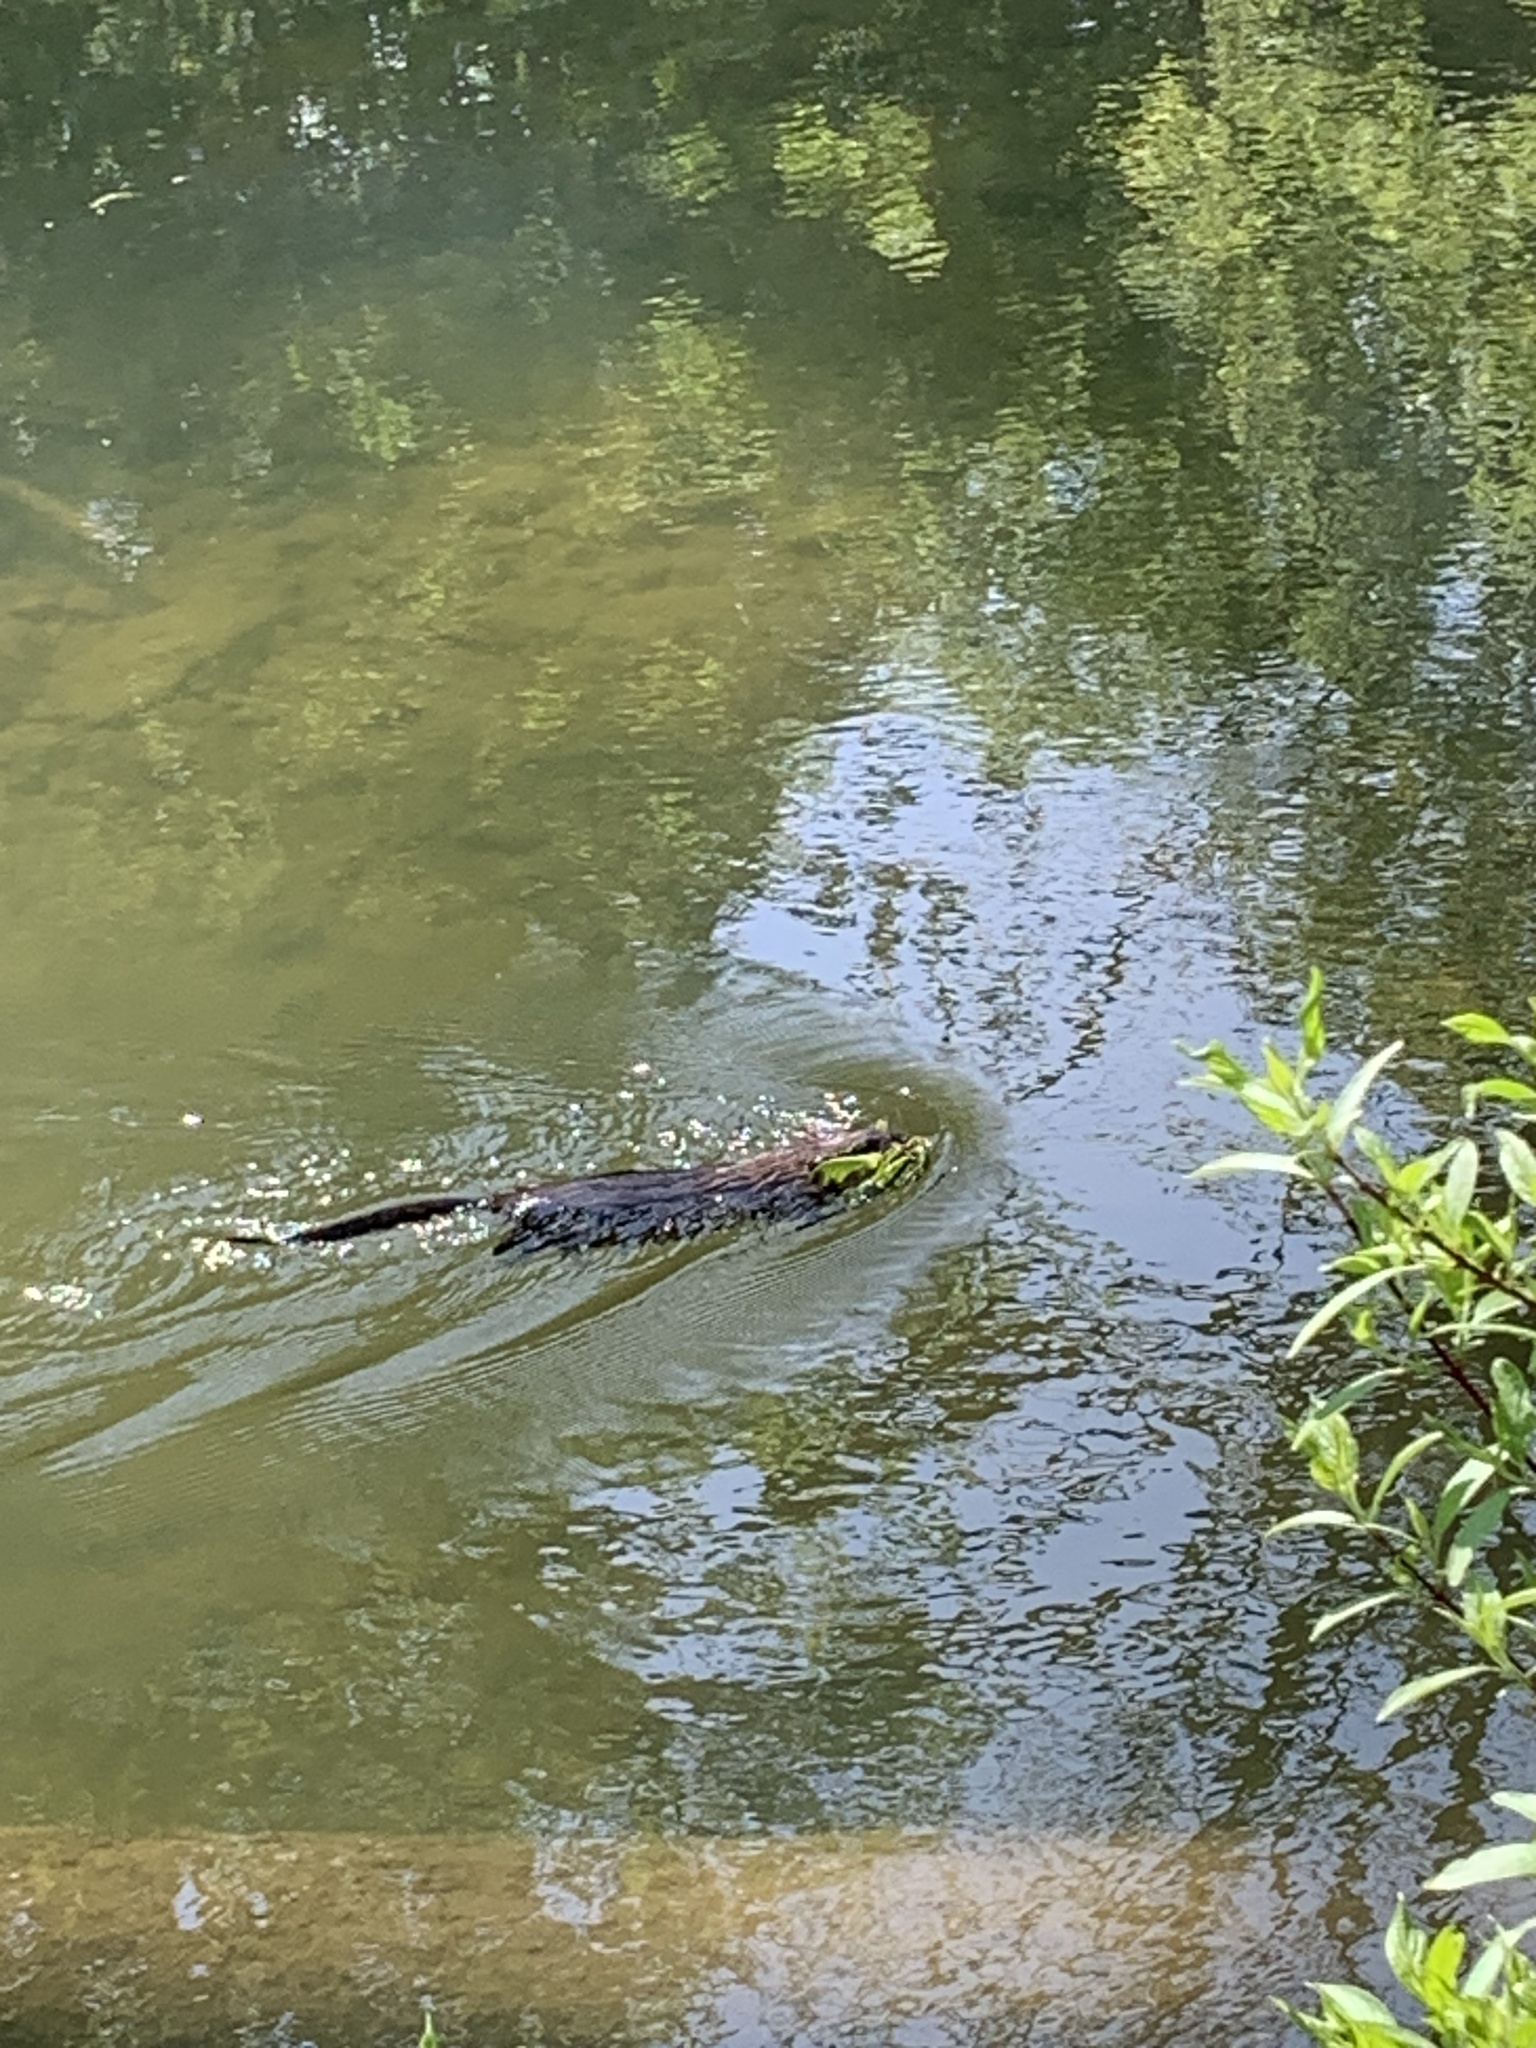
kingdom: Animalia
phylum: Chordata
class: Mammalia
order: Rodentia
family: Cricetidae
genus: Ondatra
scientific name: Ondatra zibethicus
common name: Muskrat
